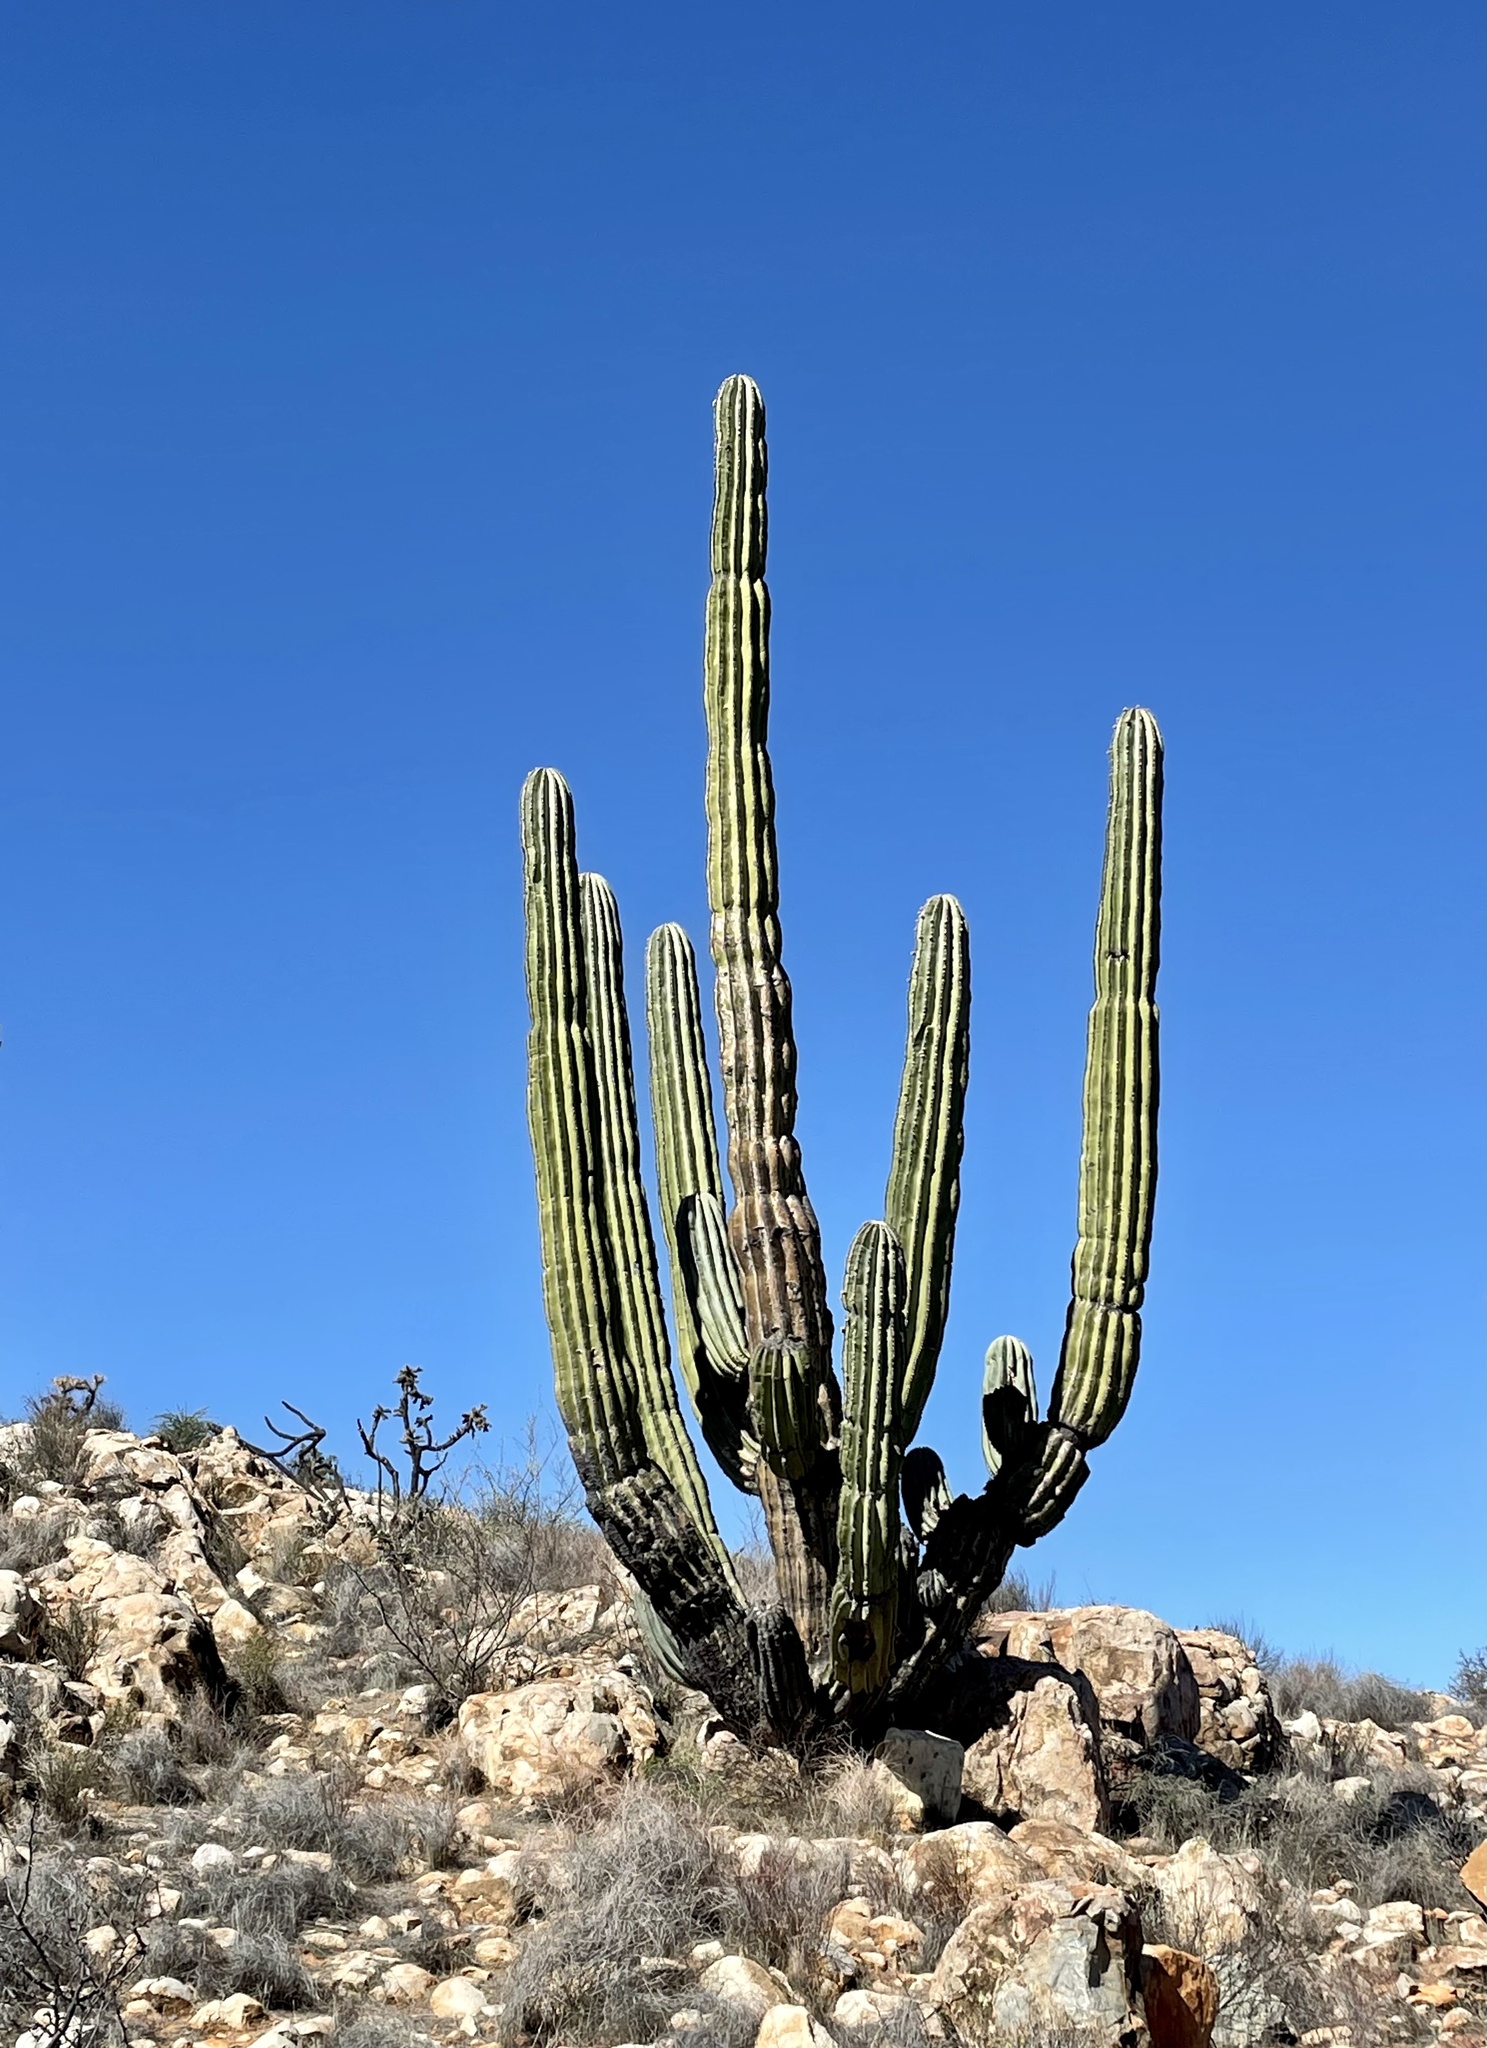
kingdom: Plantae
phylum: Tracheophyta
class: Magnoliopsida
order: Caryophyllales
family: Cactaceae
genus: Pachycereus
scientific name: Pachycereus pringlei
